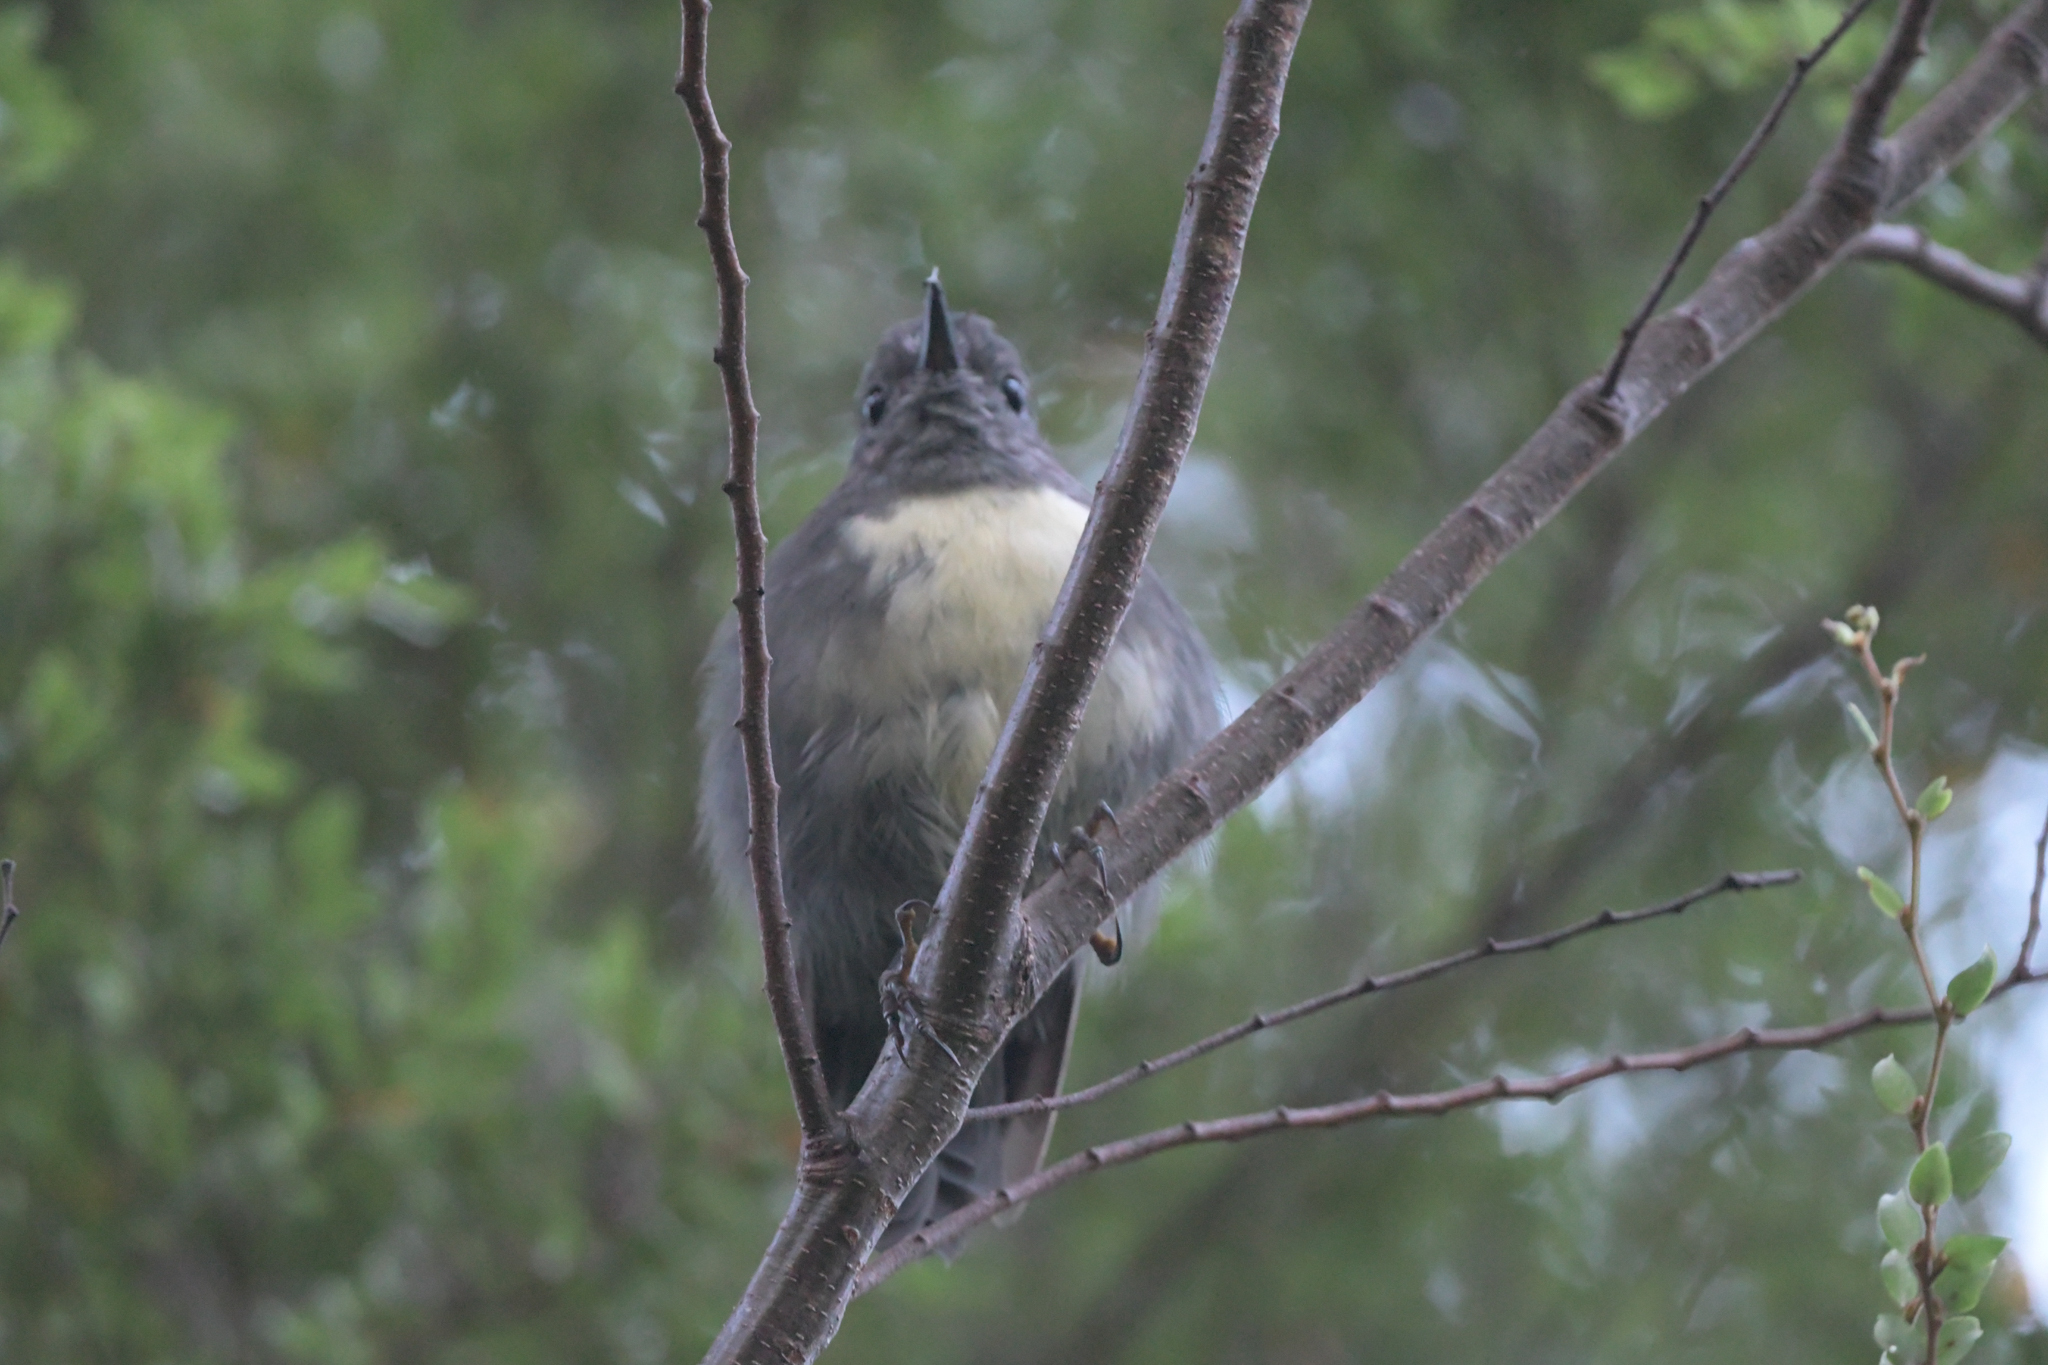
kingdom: Animalia
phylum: Chordata
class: Aves
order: Passeriformes
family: Petroicidae
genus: Petroica
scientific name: Petroica australis
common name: New zealand robin
